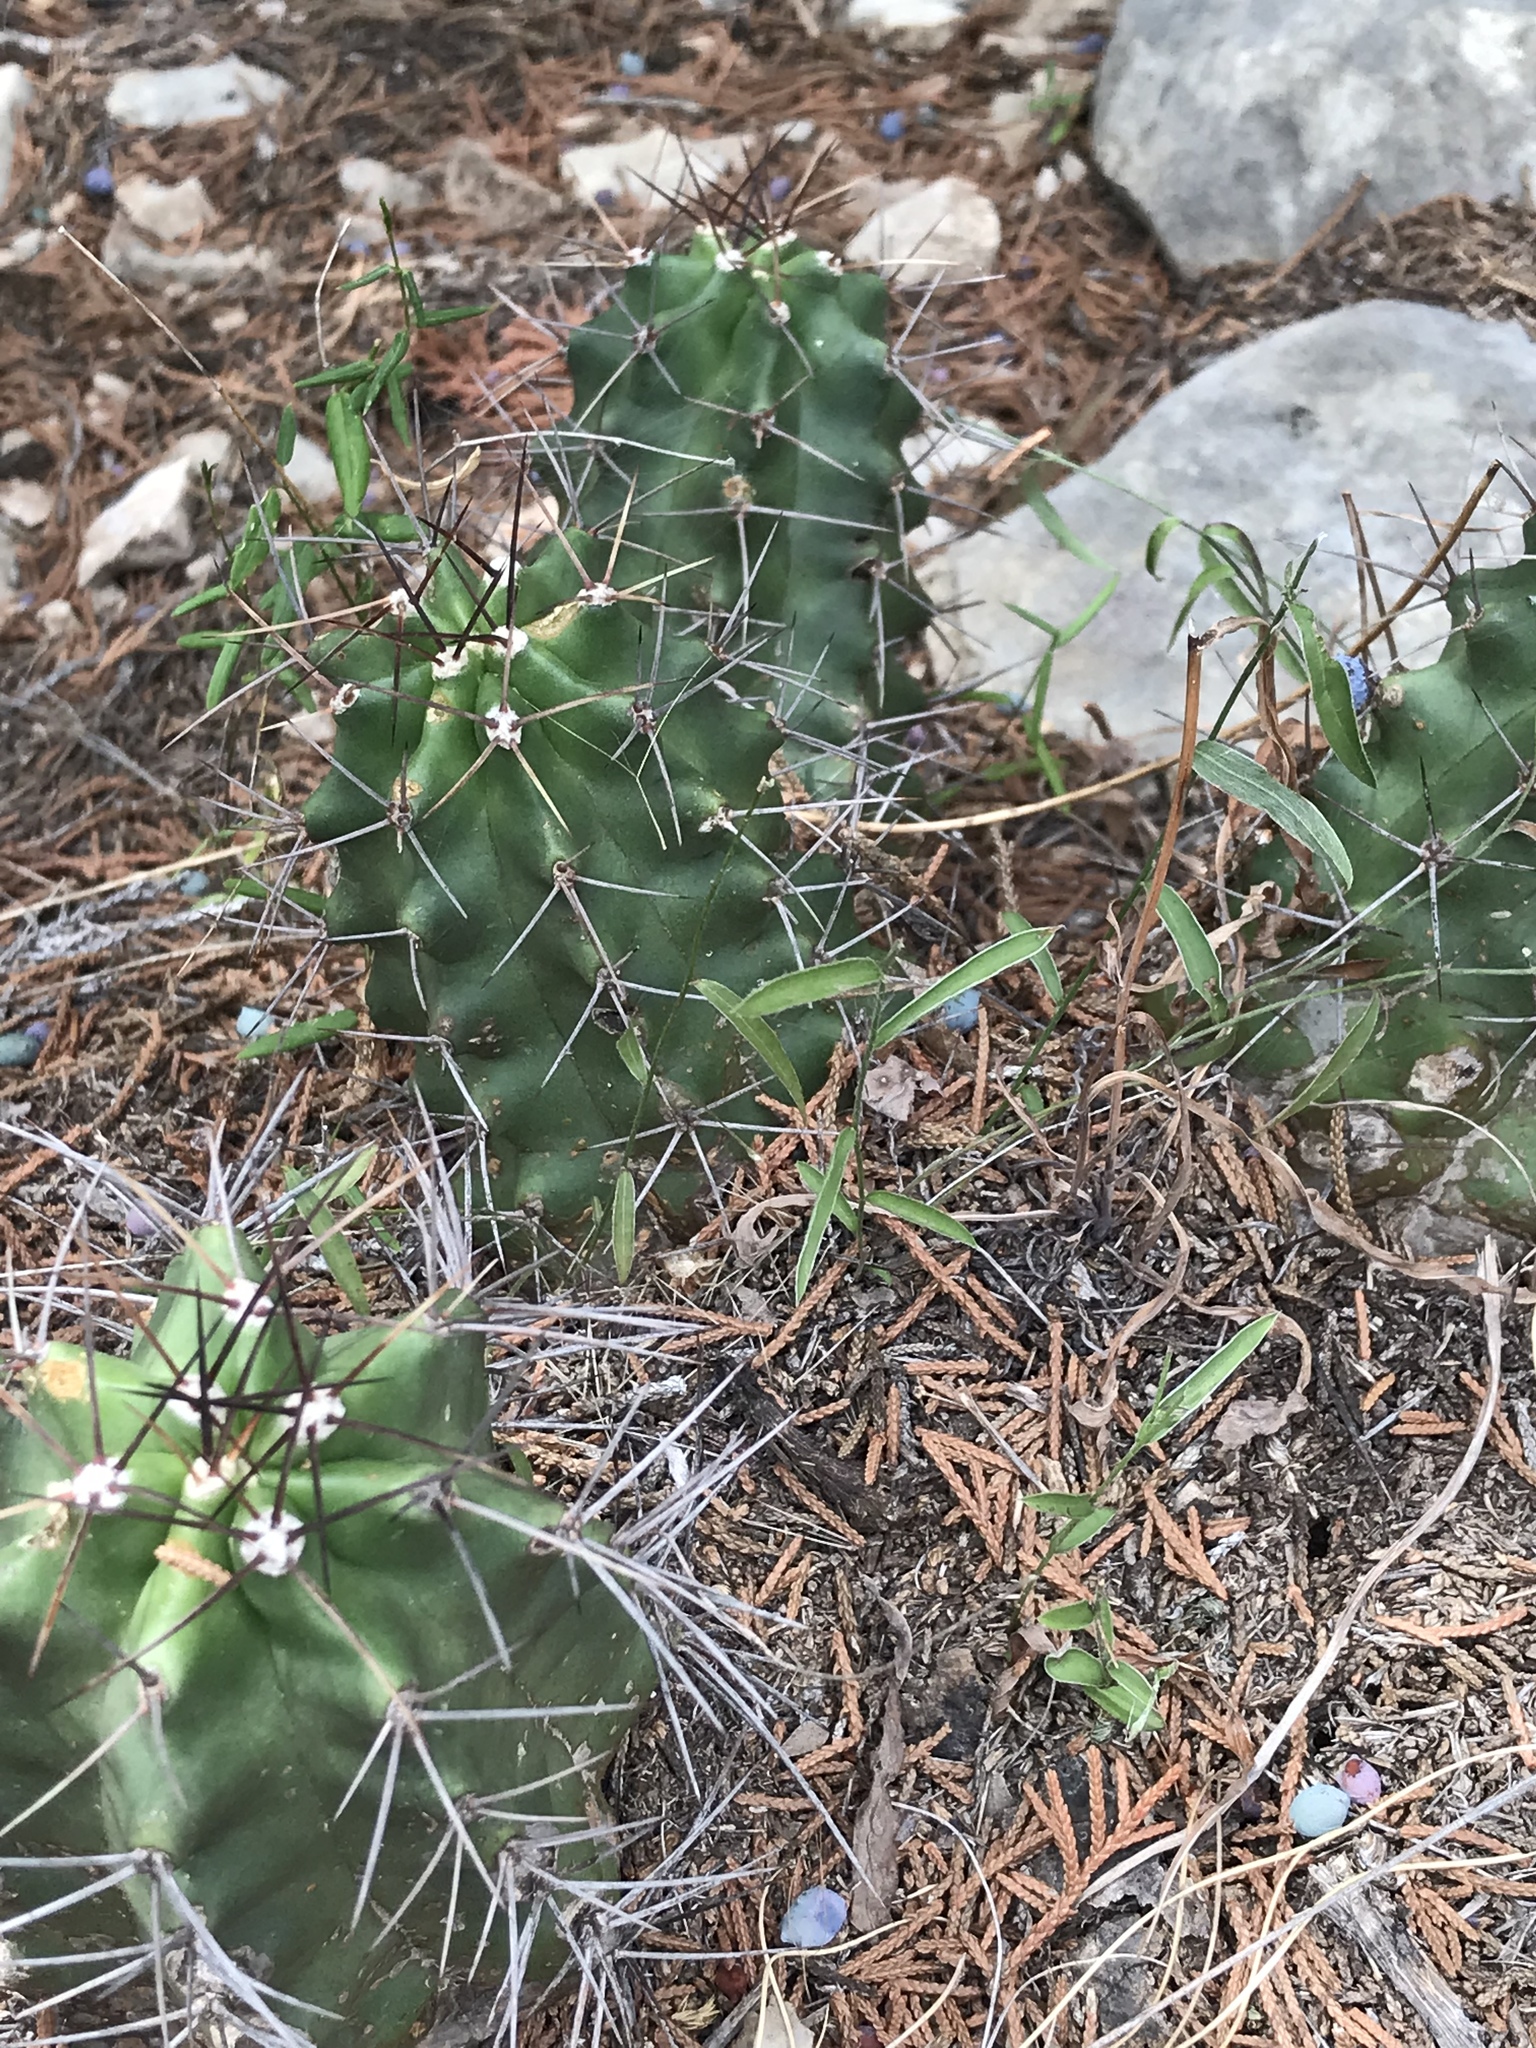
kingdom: Plantae
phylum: Tracheophyta
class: Magnoliopsida
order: Caryophyllales
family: Cactaceae
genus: Echinocereus
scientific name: Echinocereus coccineus
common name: Scarlet hedgehog cactus
